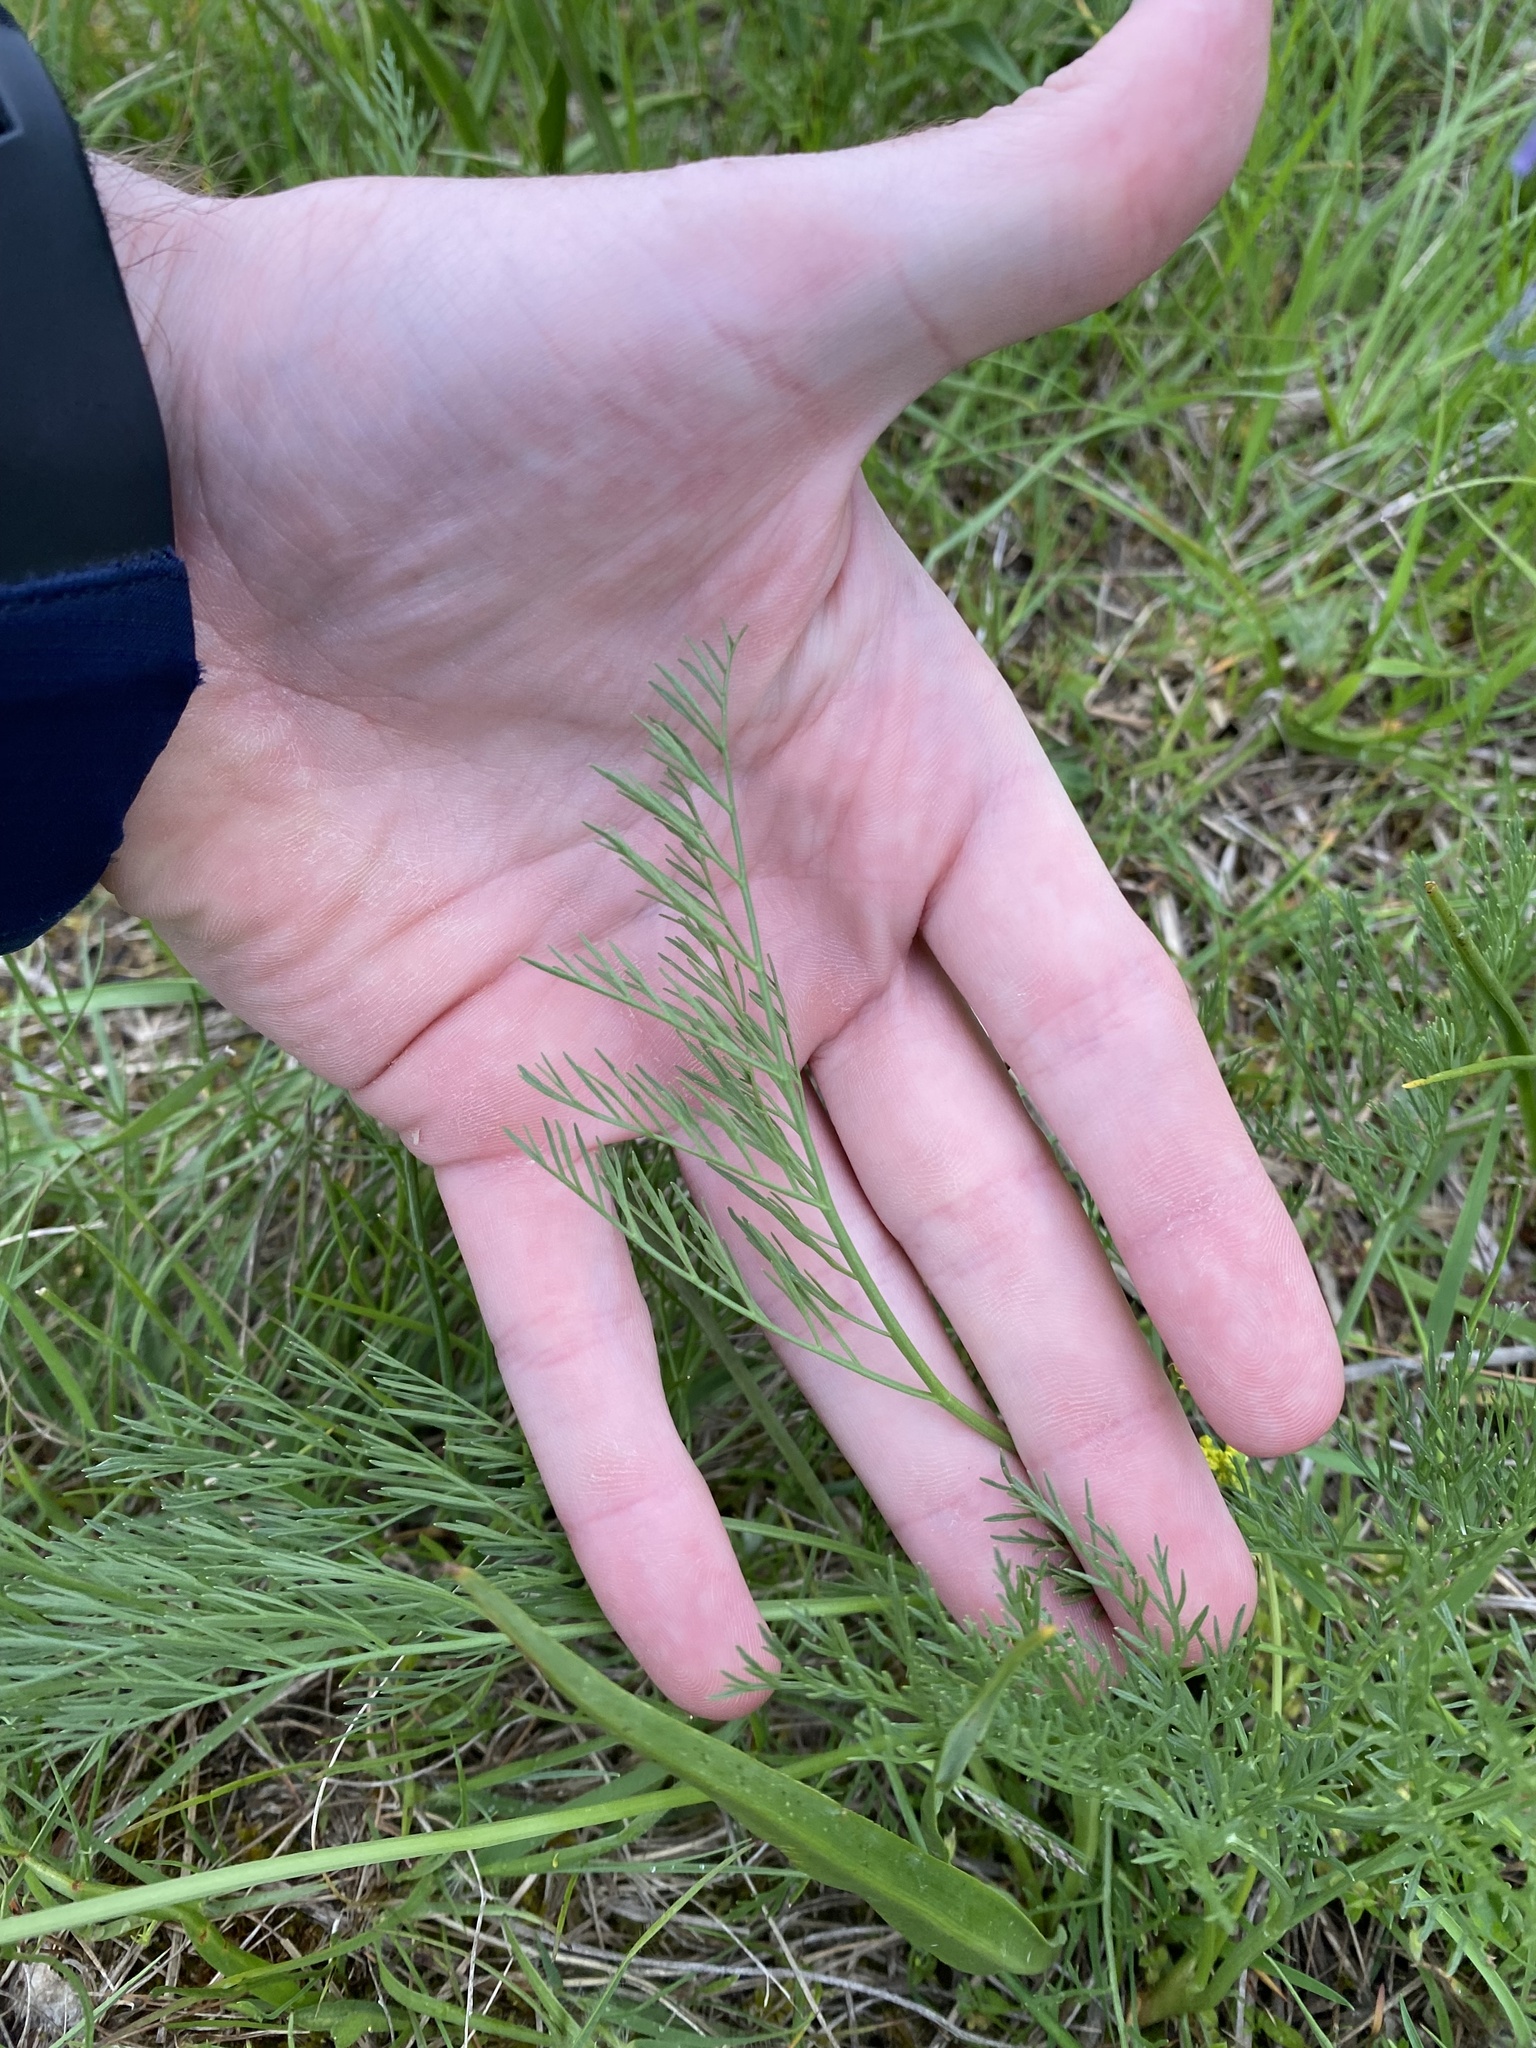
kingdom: Plantae
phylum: Tracheophyta
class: Magnoliopsida
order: Apiales
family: Apiaceae
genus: Lomatium
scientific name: Lomatium bradshawii
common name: Bradshaw's desert-parsley
